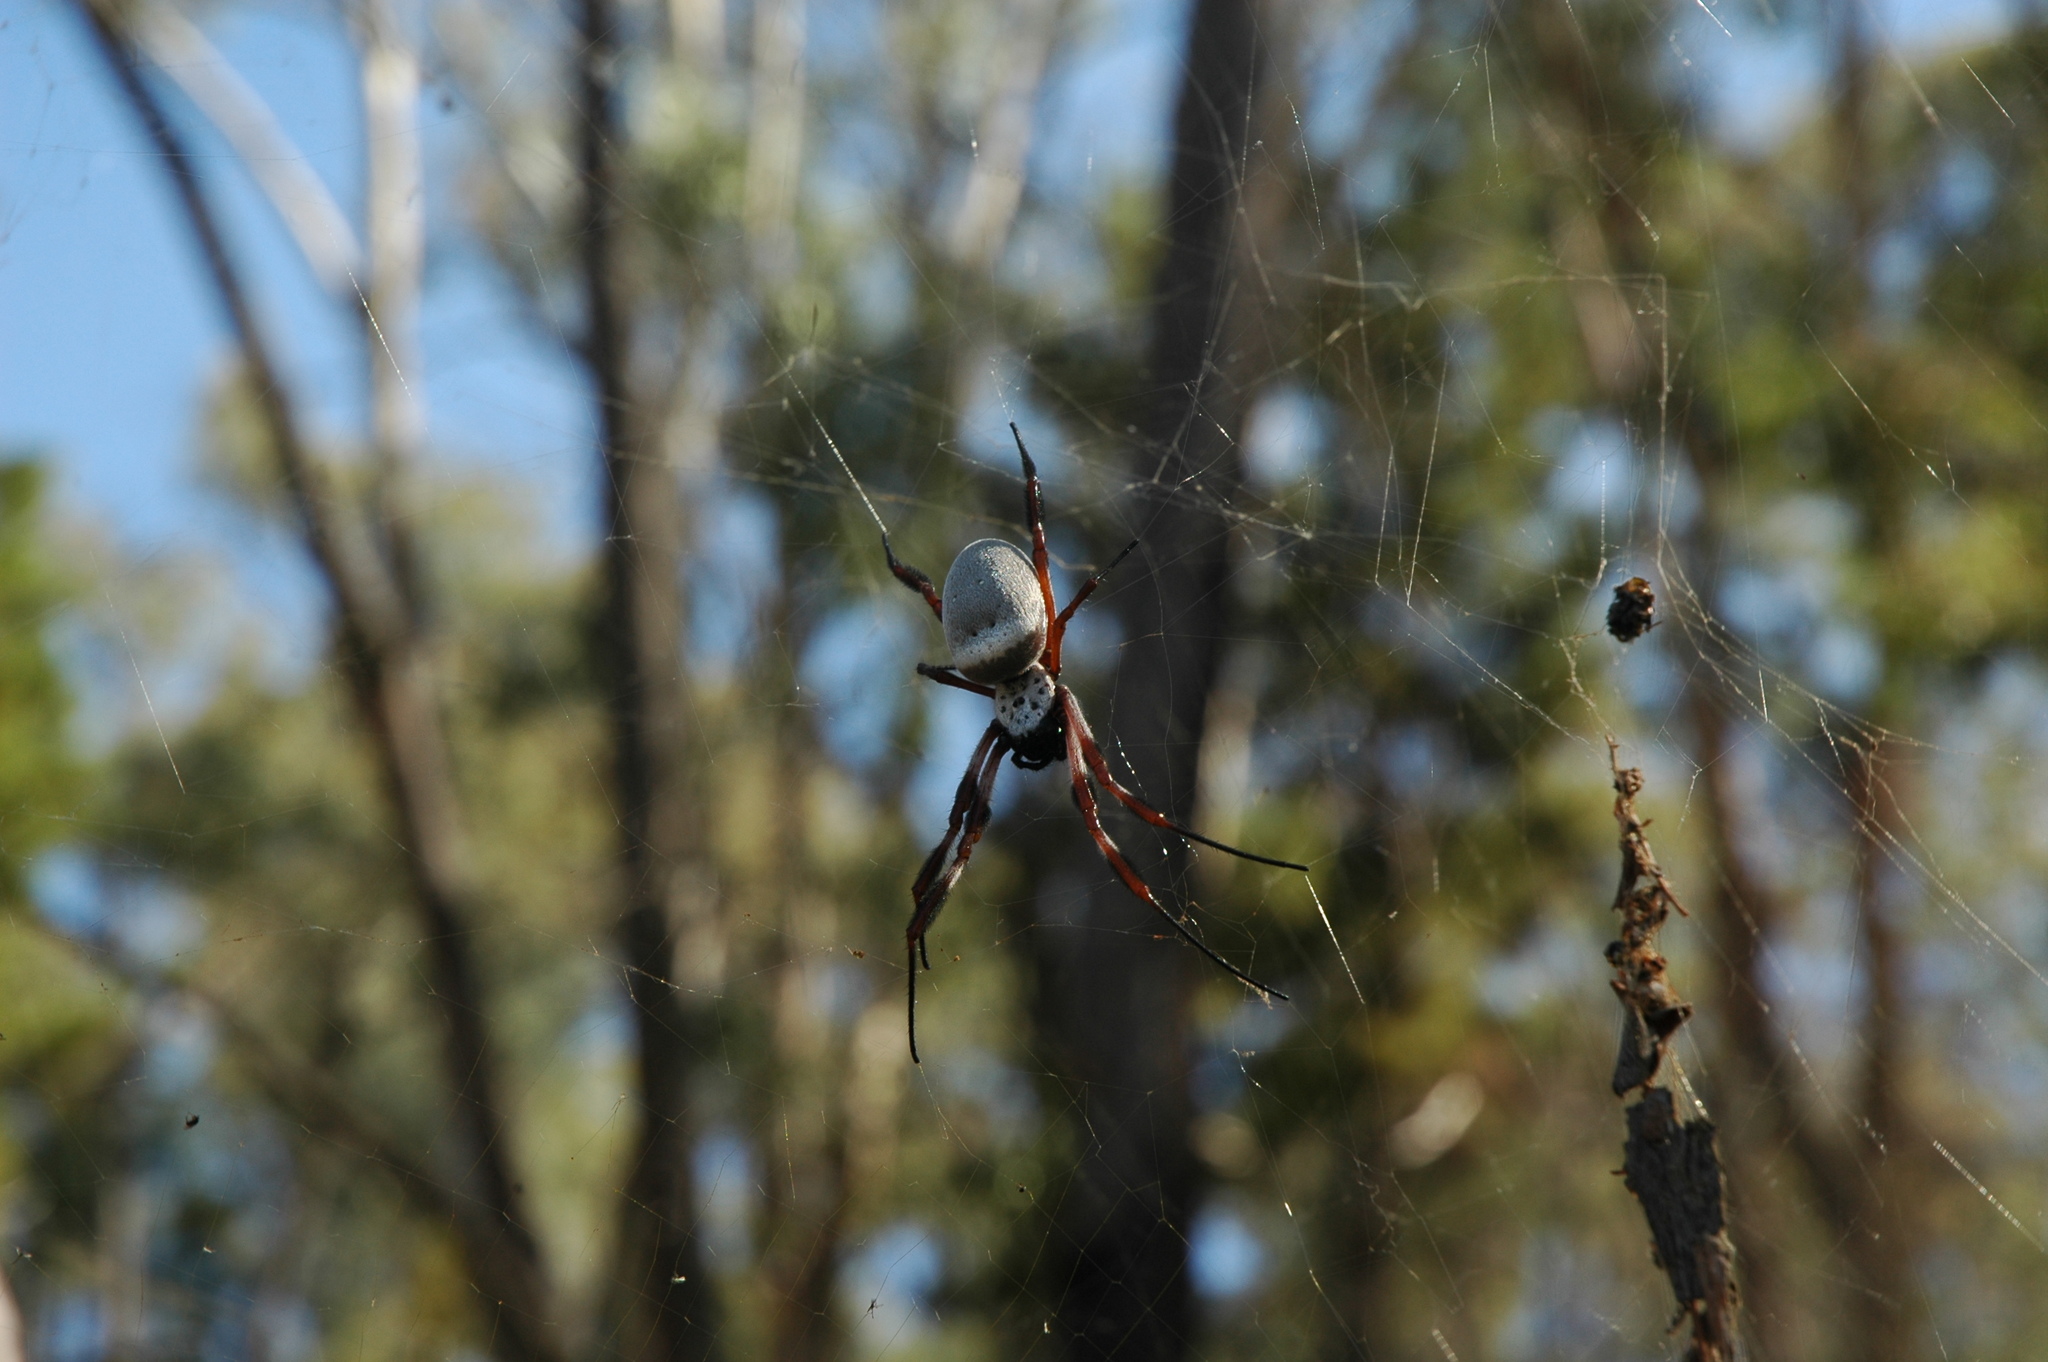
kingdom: Animalia
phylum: Arthropoda
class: Arachnida
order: Araneae
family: Araneidae
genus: Trichonephila
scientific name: Trichonephila edulis
